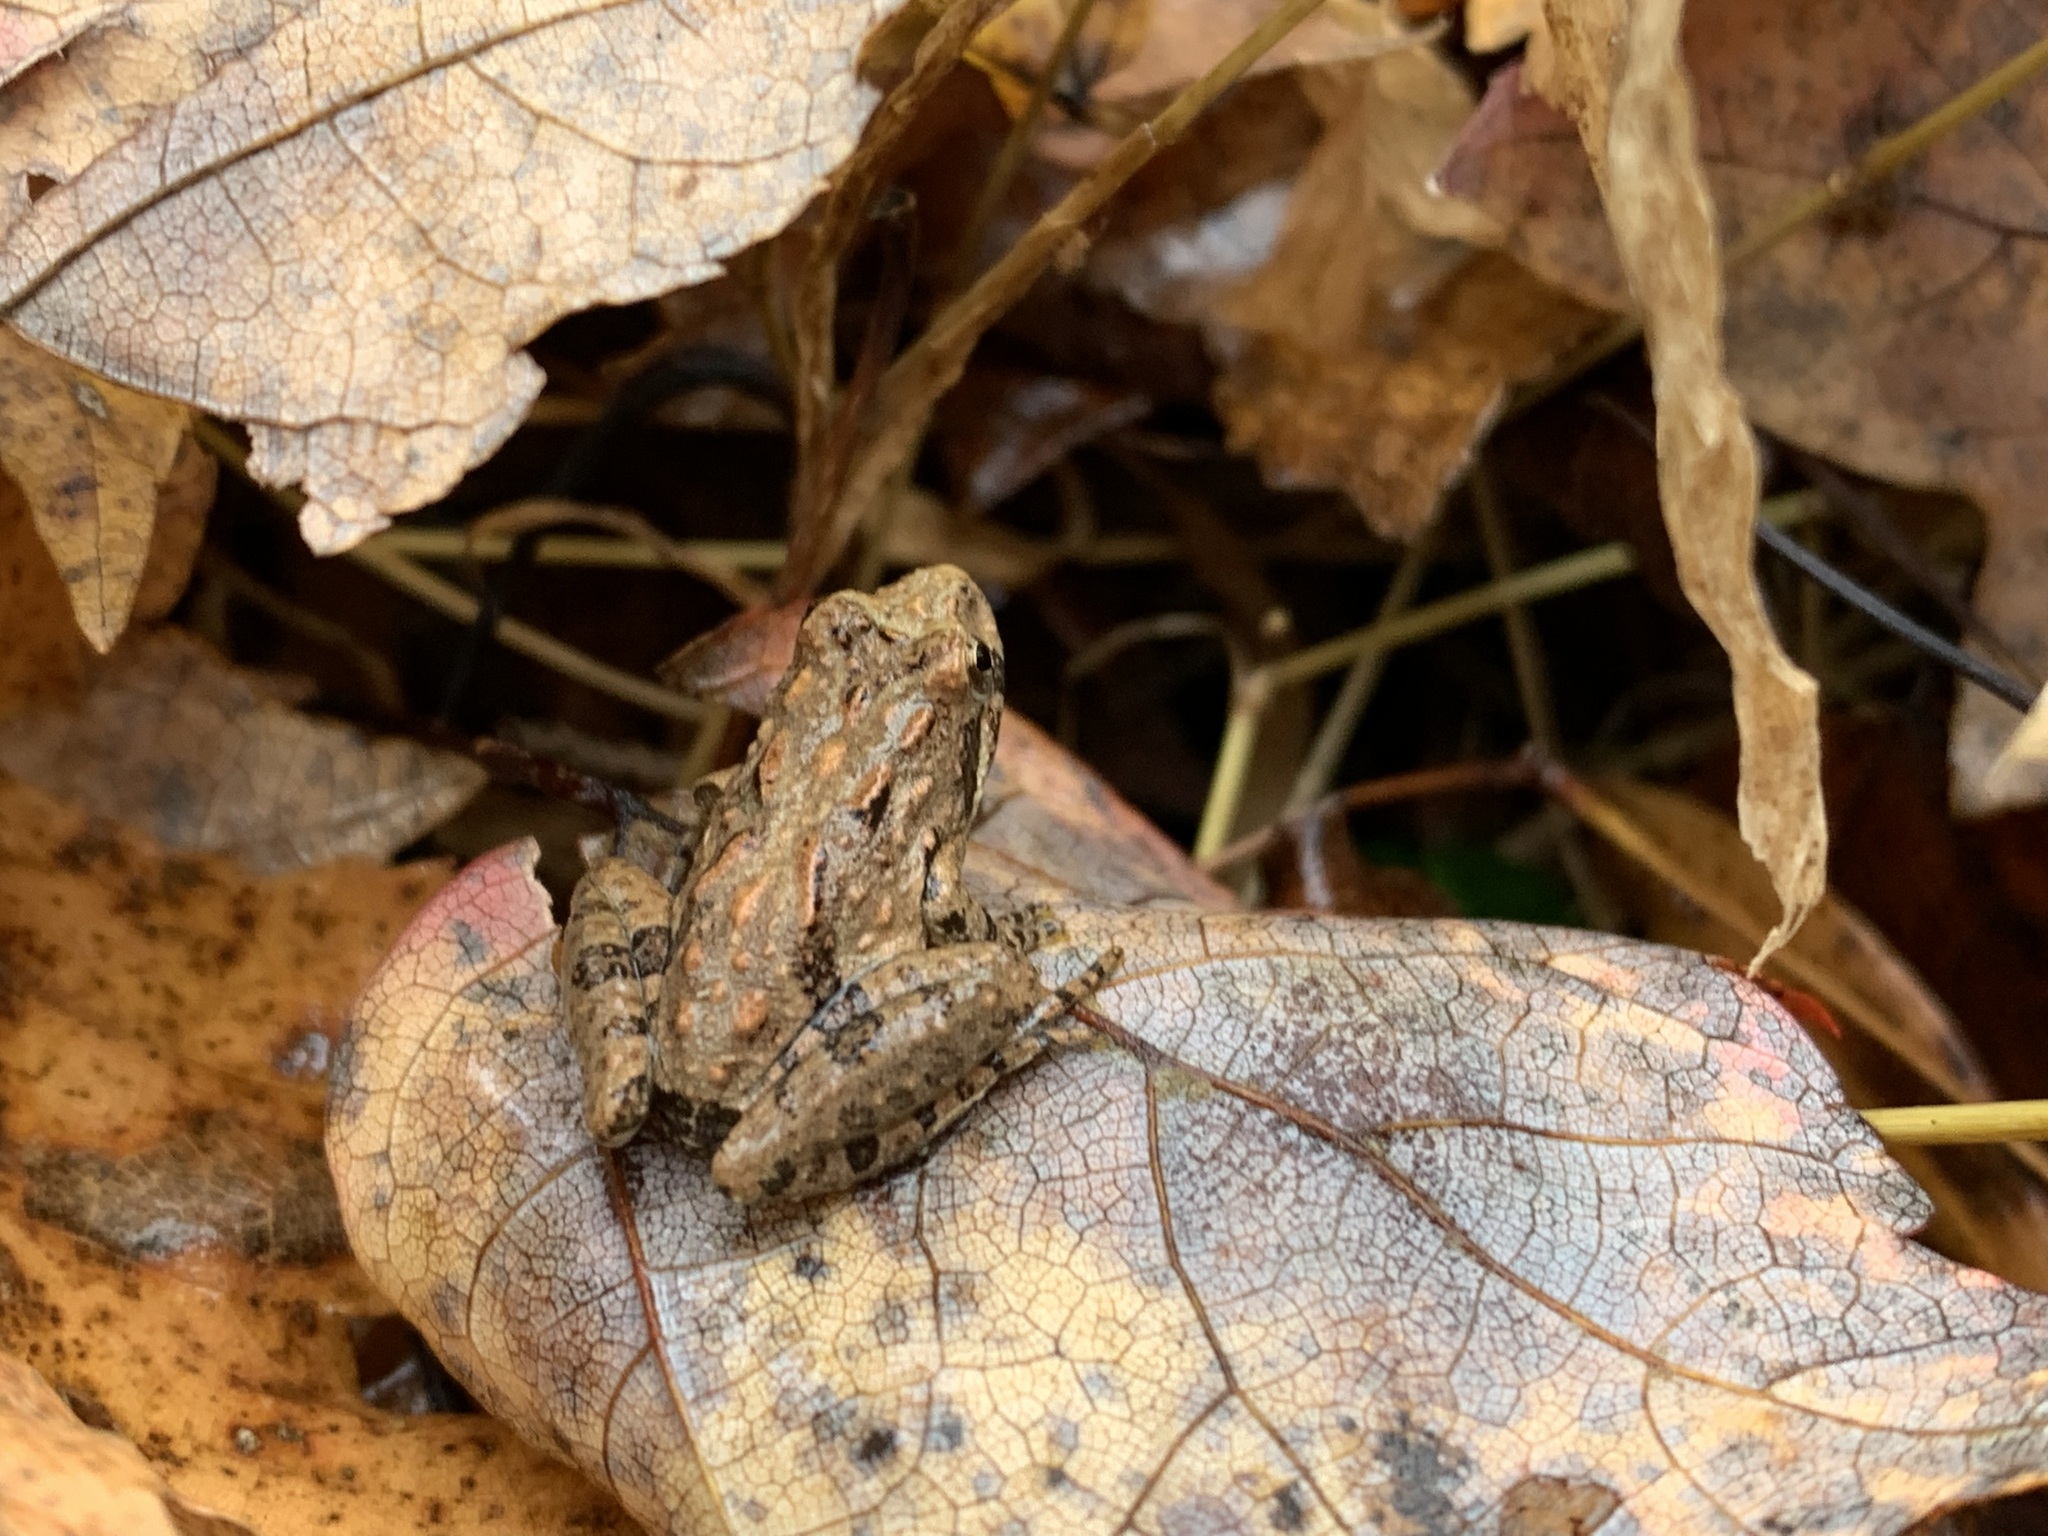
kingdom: Animalia
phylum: Chordata
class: Amphibia
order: Anura
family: Hylidae
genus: Acris
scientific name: Acris crepitans
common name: Northern cricket frog
